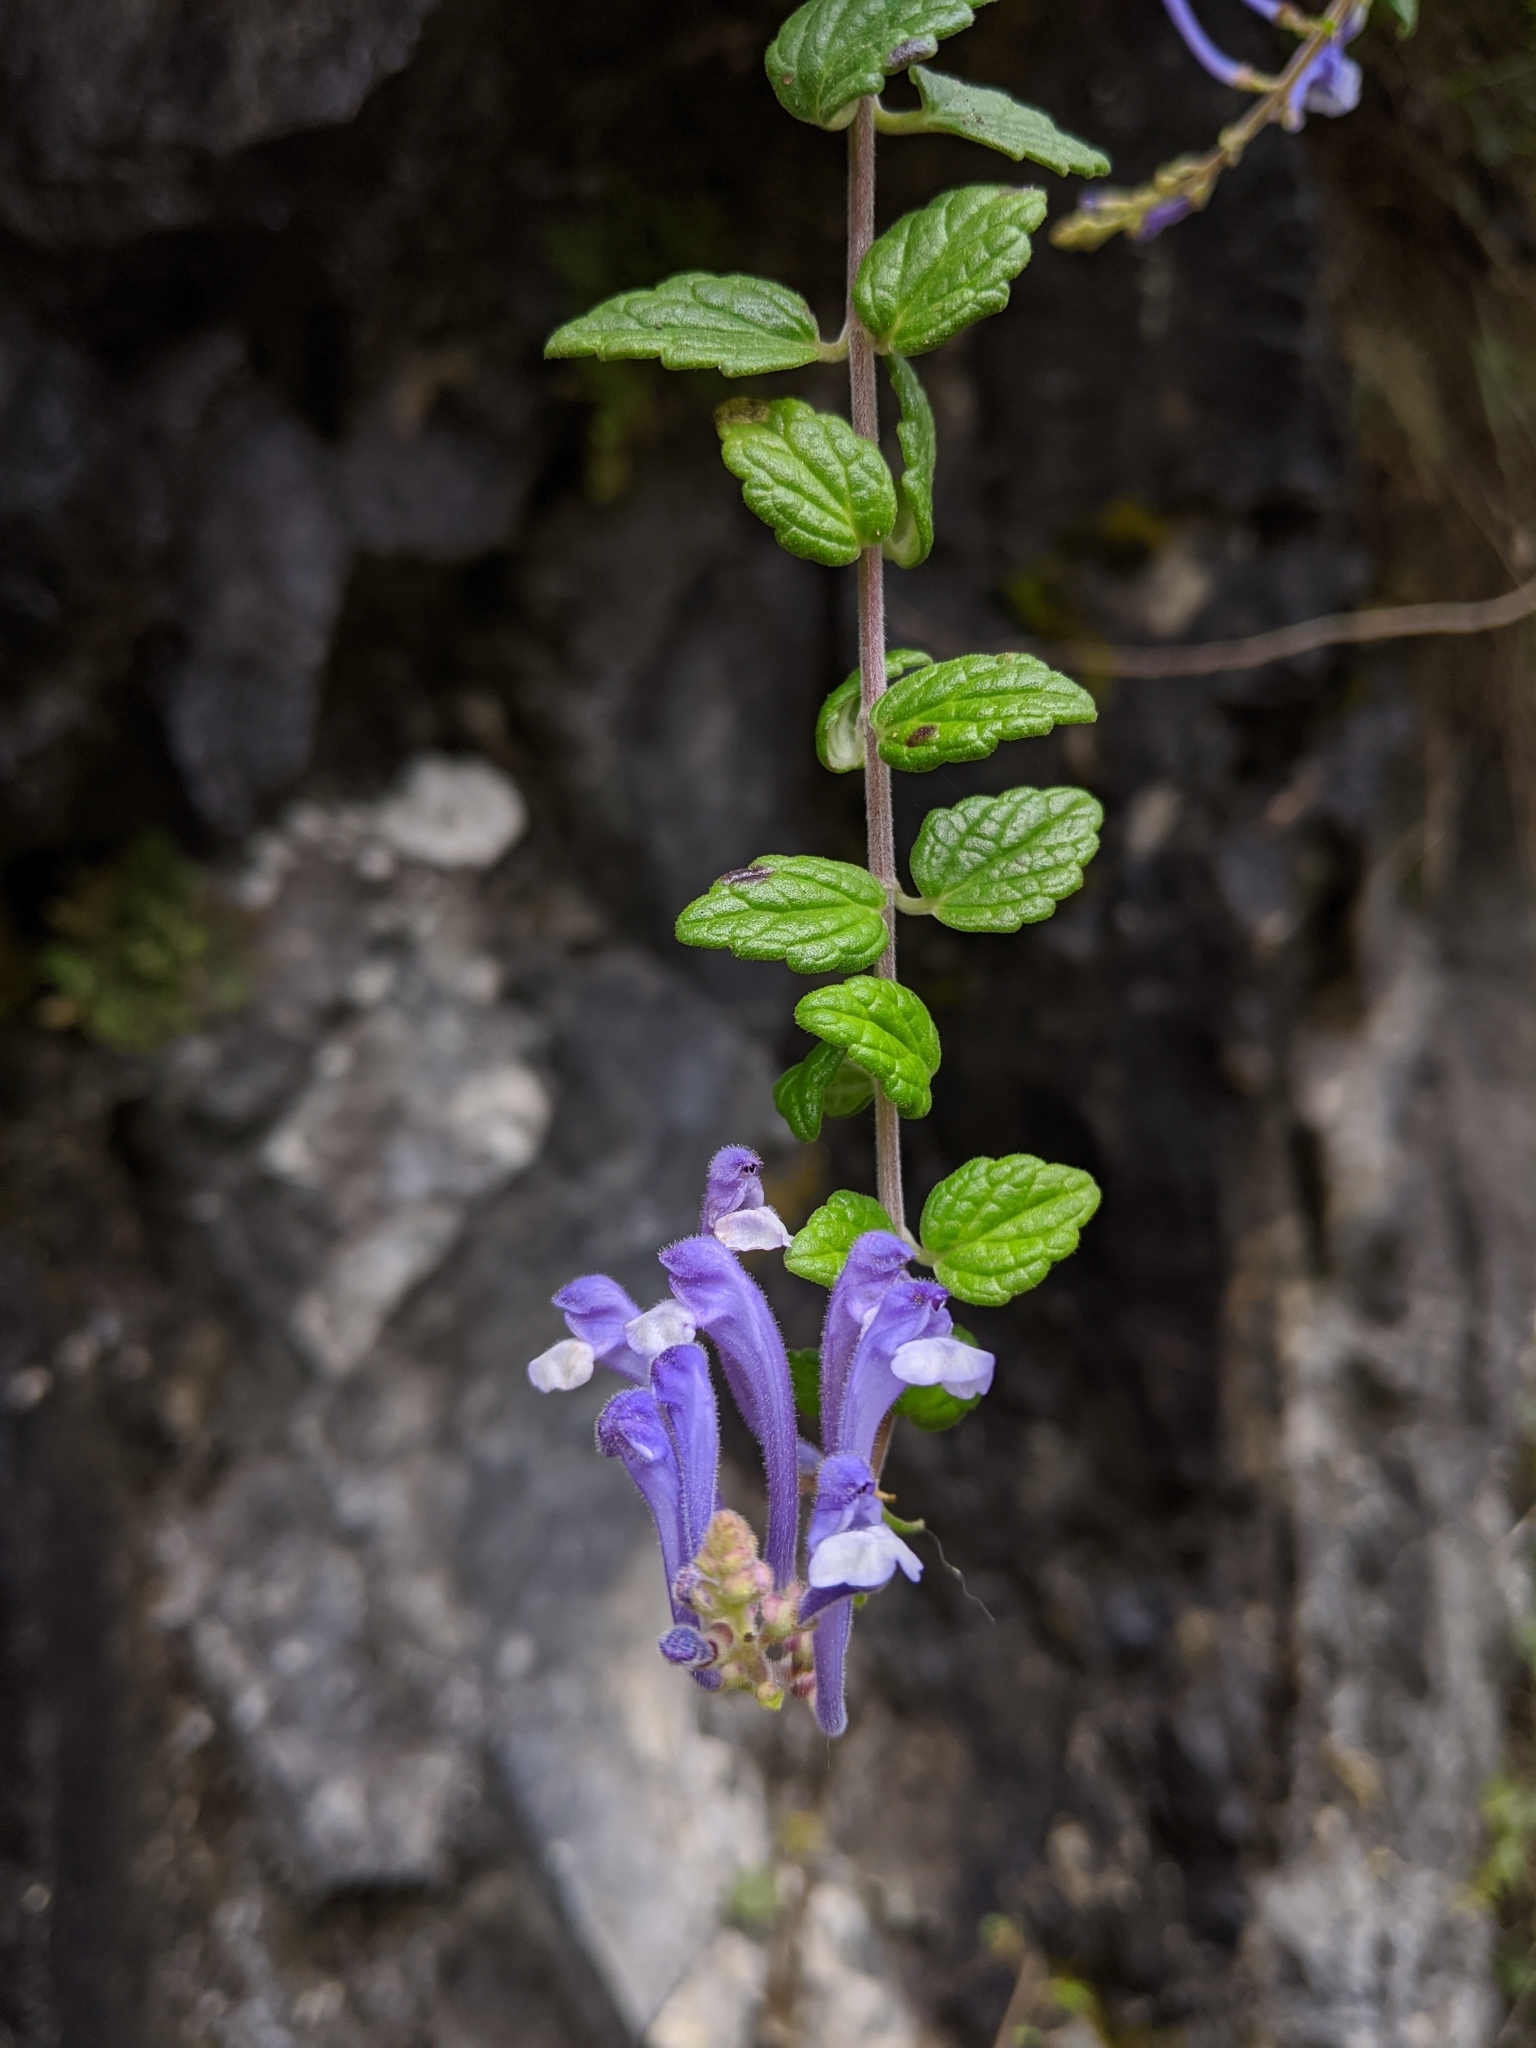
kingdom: Plantae
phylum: Tracheophyta
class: Magnoliopsida
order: Lamiales
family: Lamiaceae
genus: Scutellaria
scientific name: Scutellaria indica
